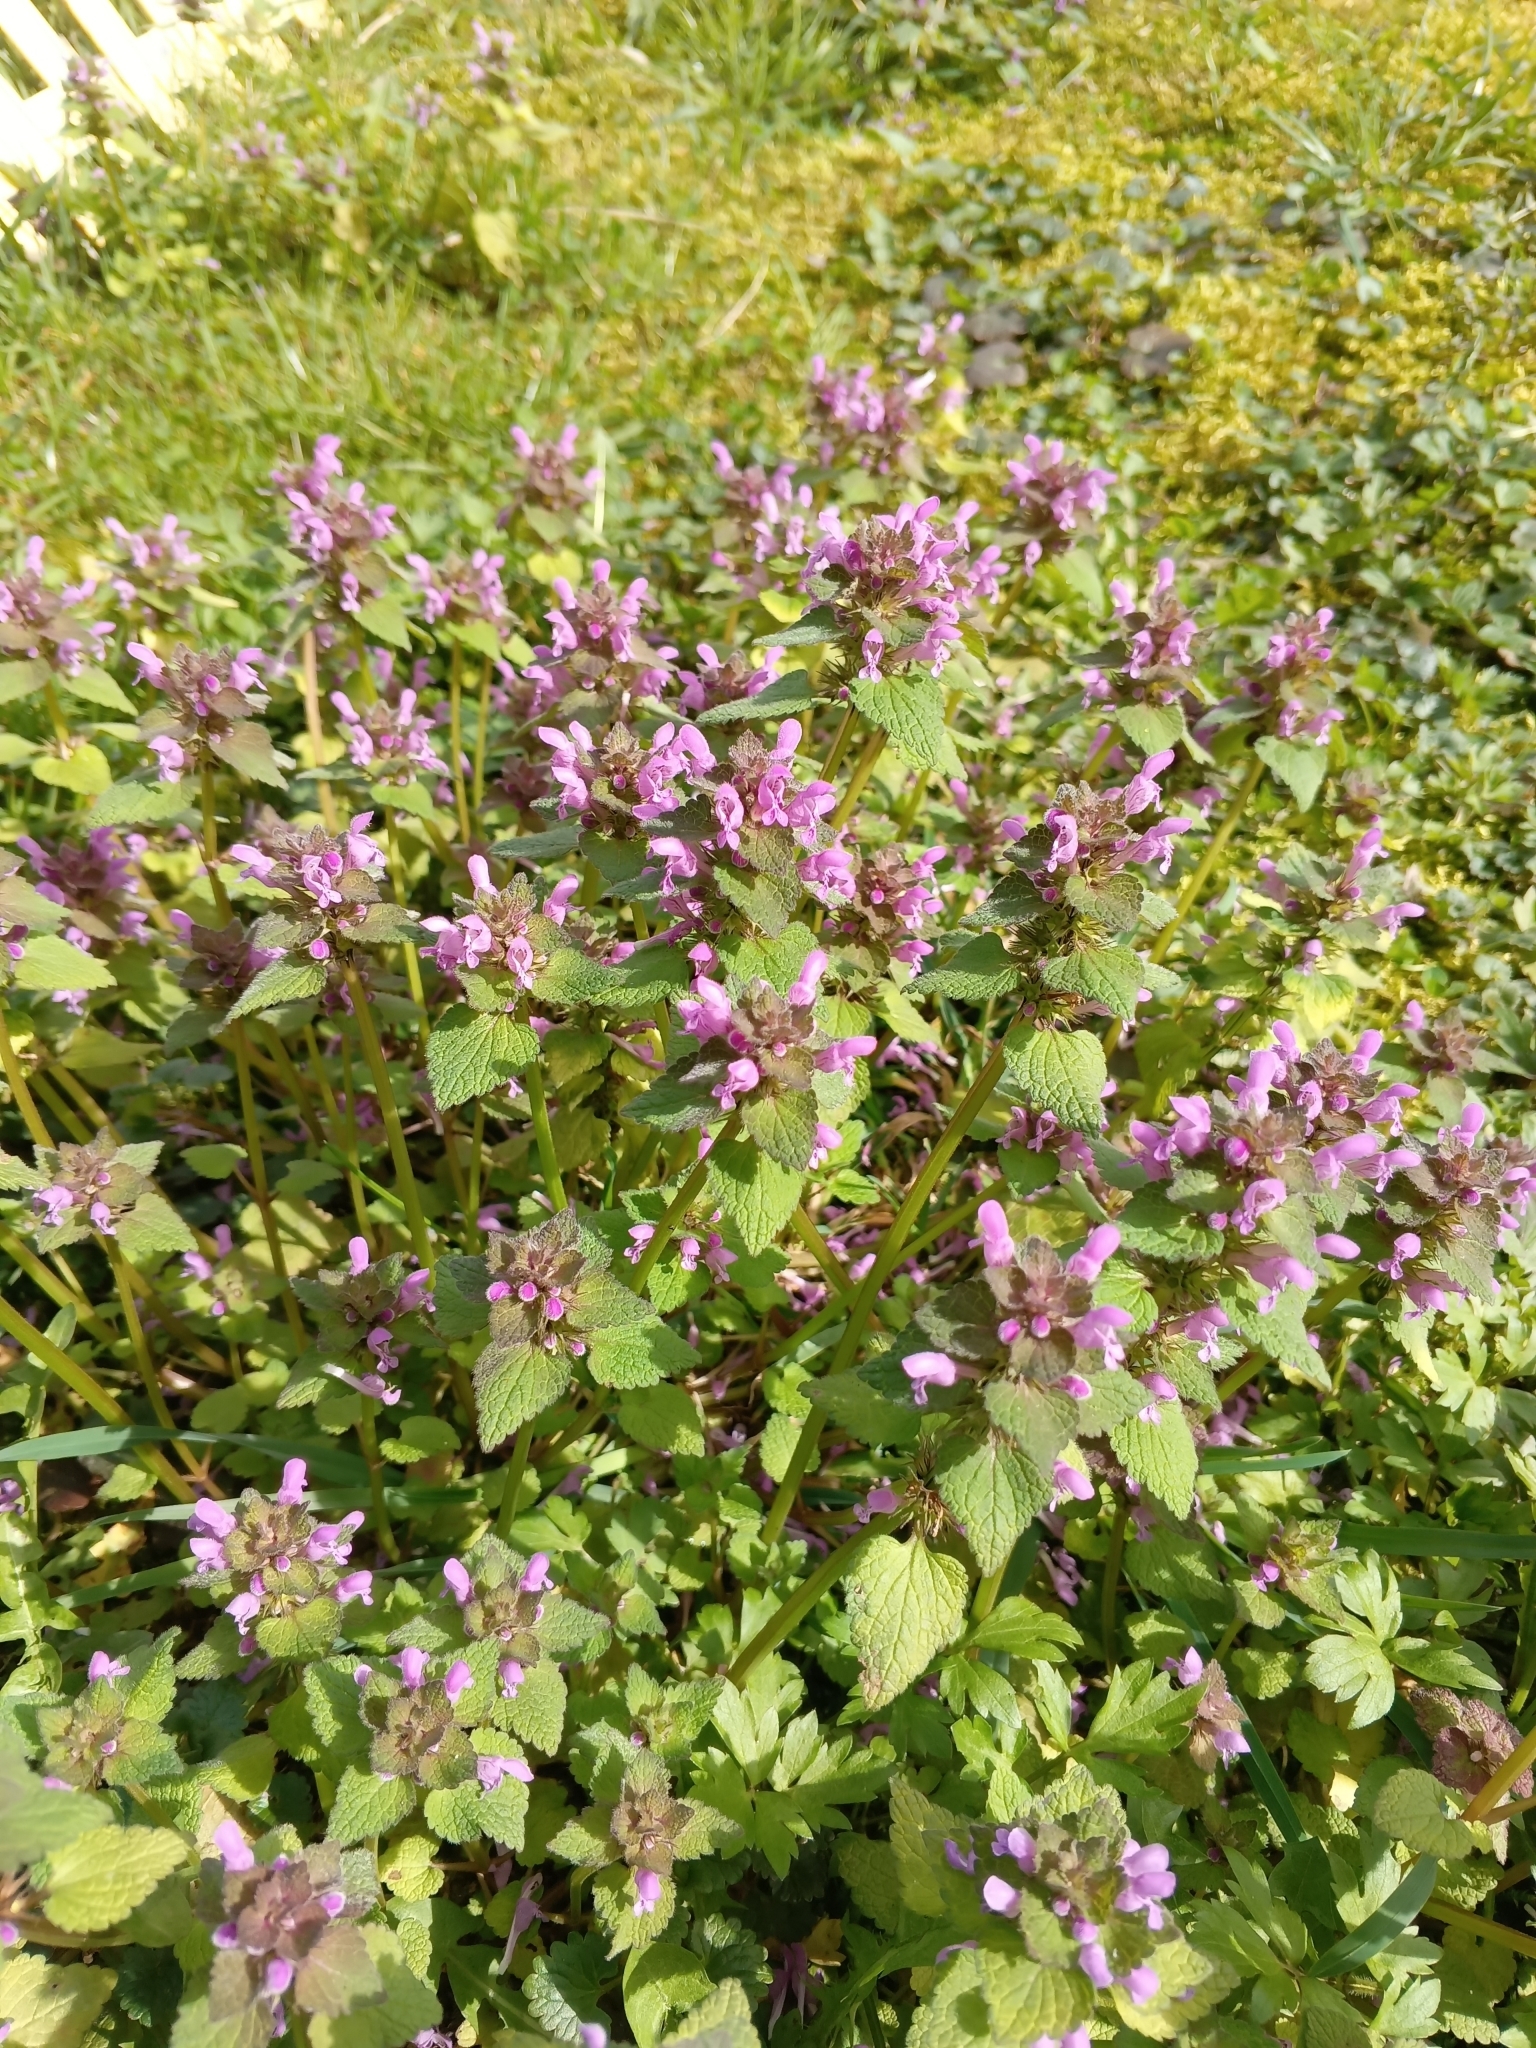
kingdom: Plantae
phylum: Tracheophyta
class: Magnoliopsida
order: Lamiales
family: Lamiaceae
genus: Lamium
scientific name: Lamium purpureum
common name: Red dead-nettle
